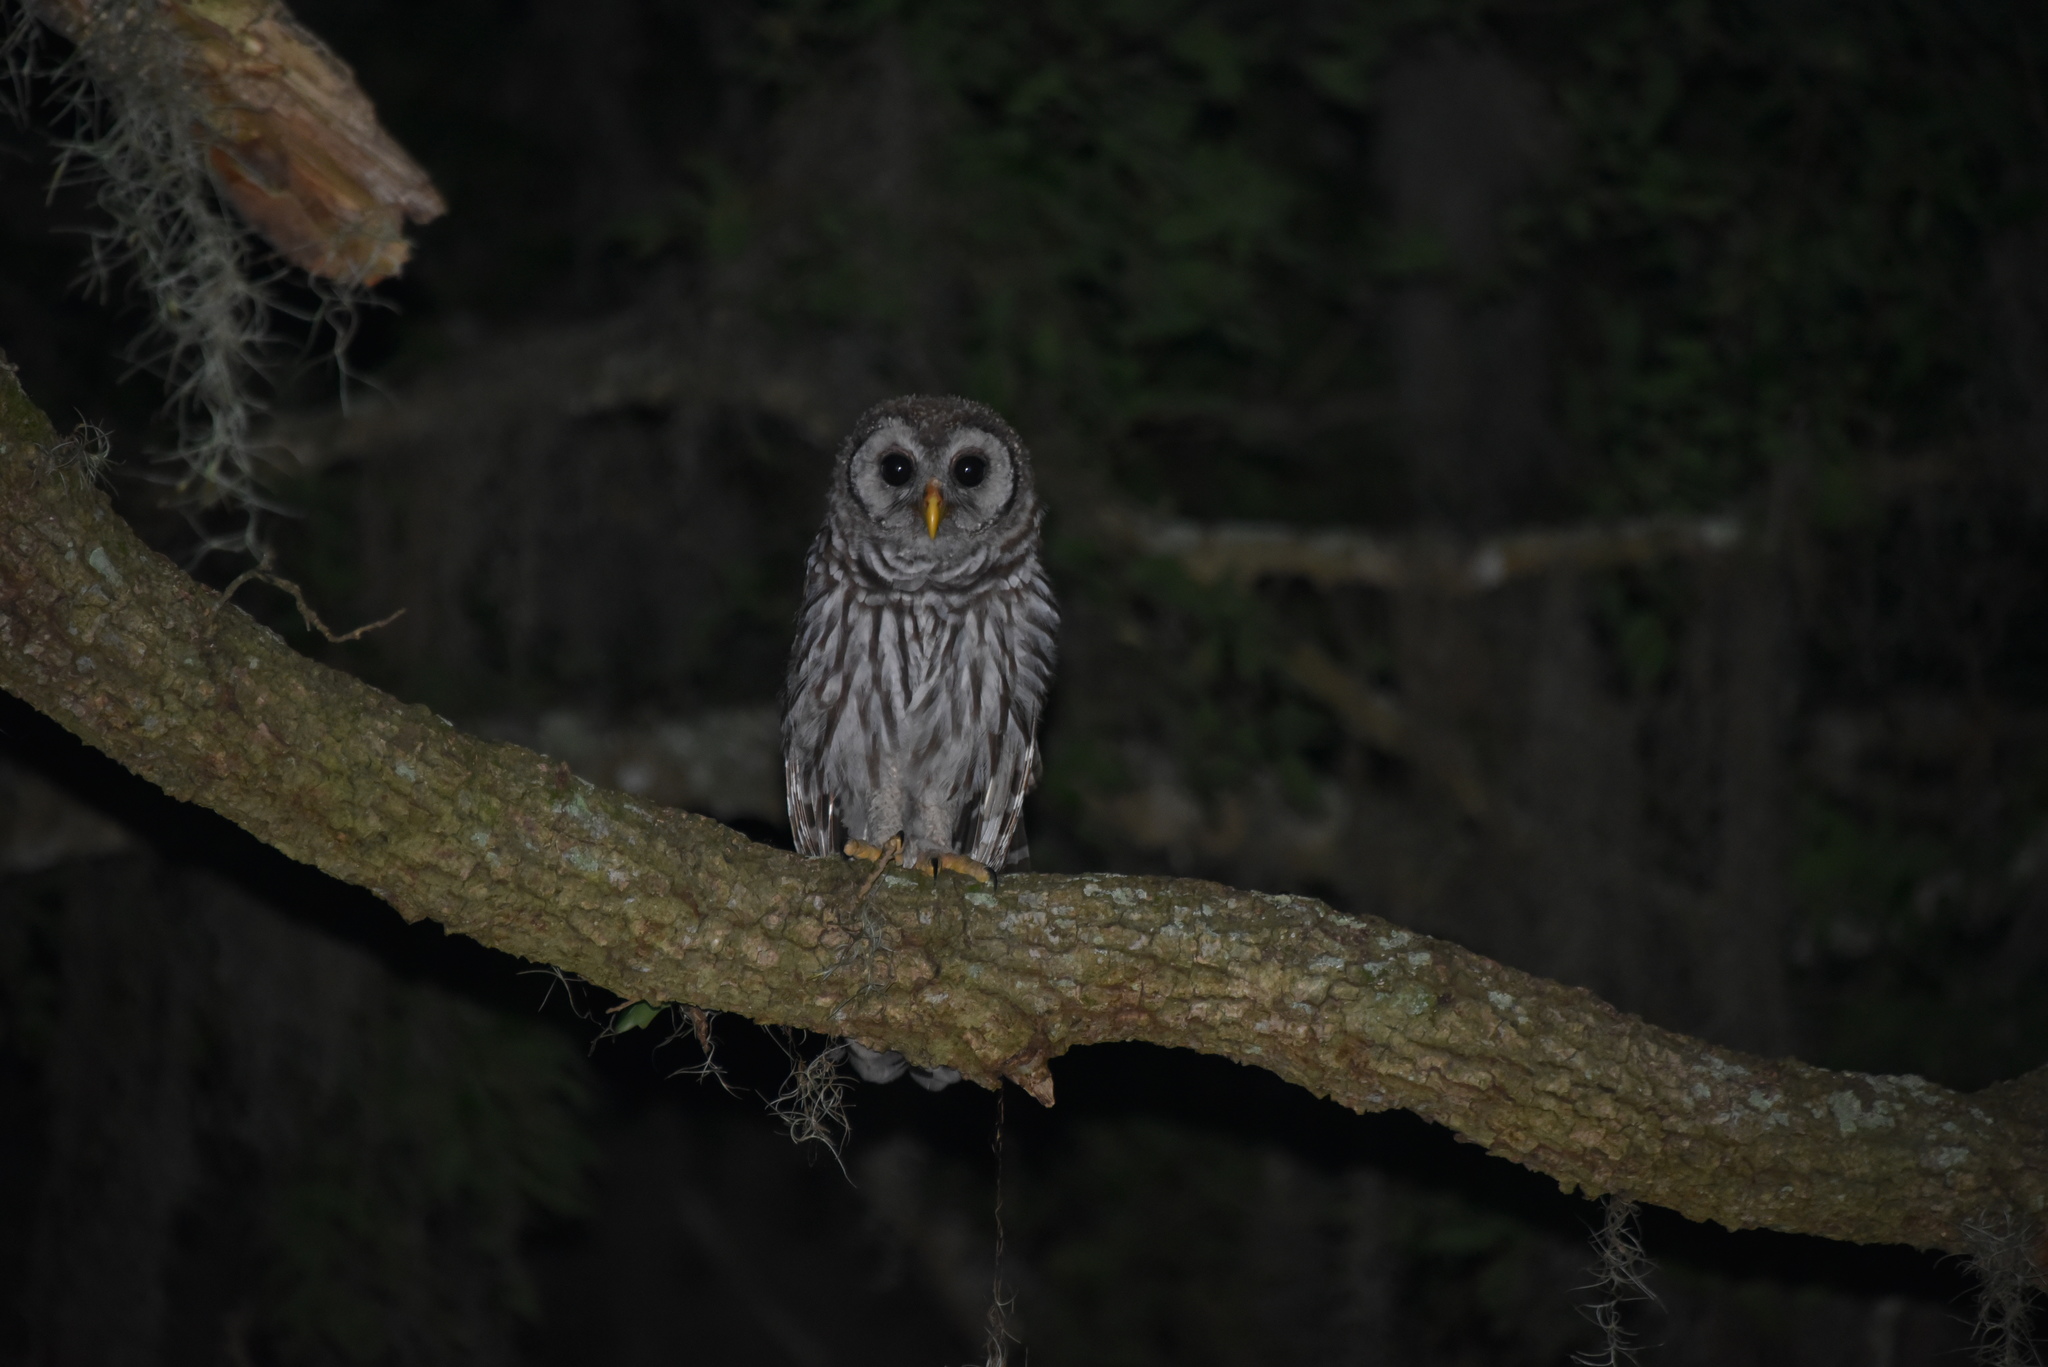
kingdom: Animalia
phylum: Chordata
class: Aves
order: Strigiformes
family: Strigidae
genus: Strix
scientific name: Strix varia
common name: Barred owl
